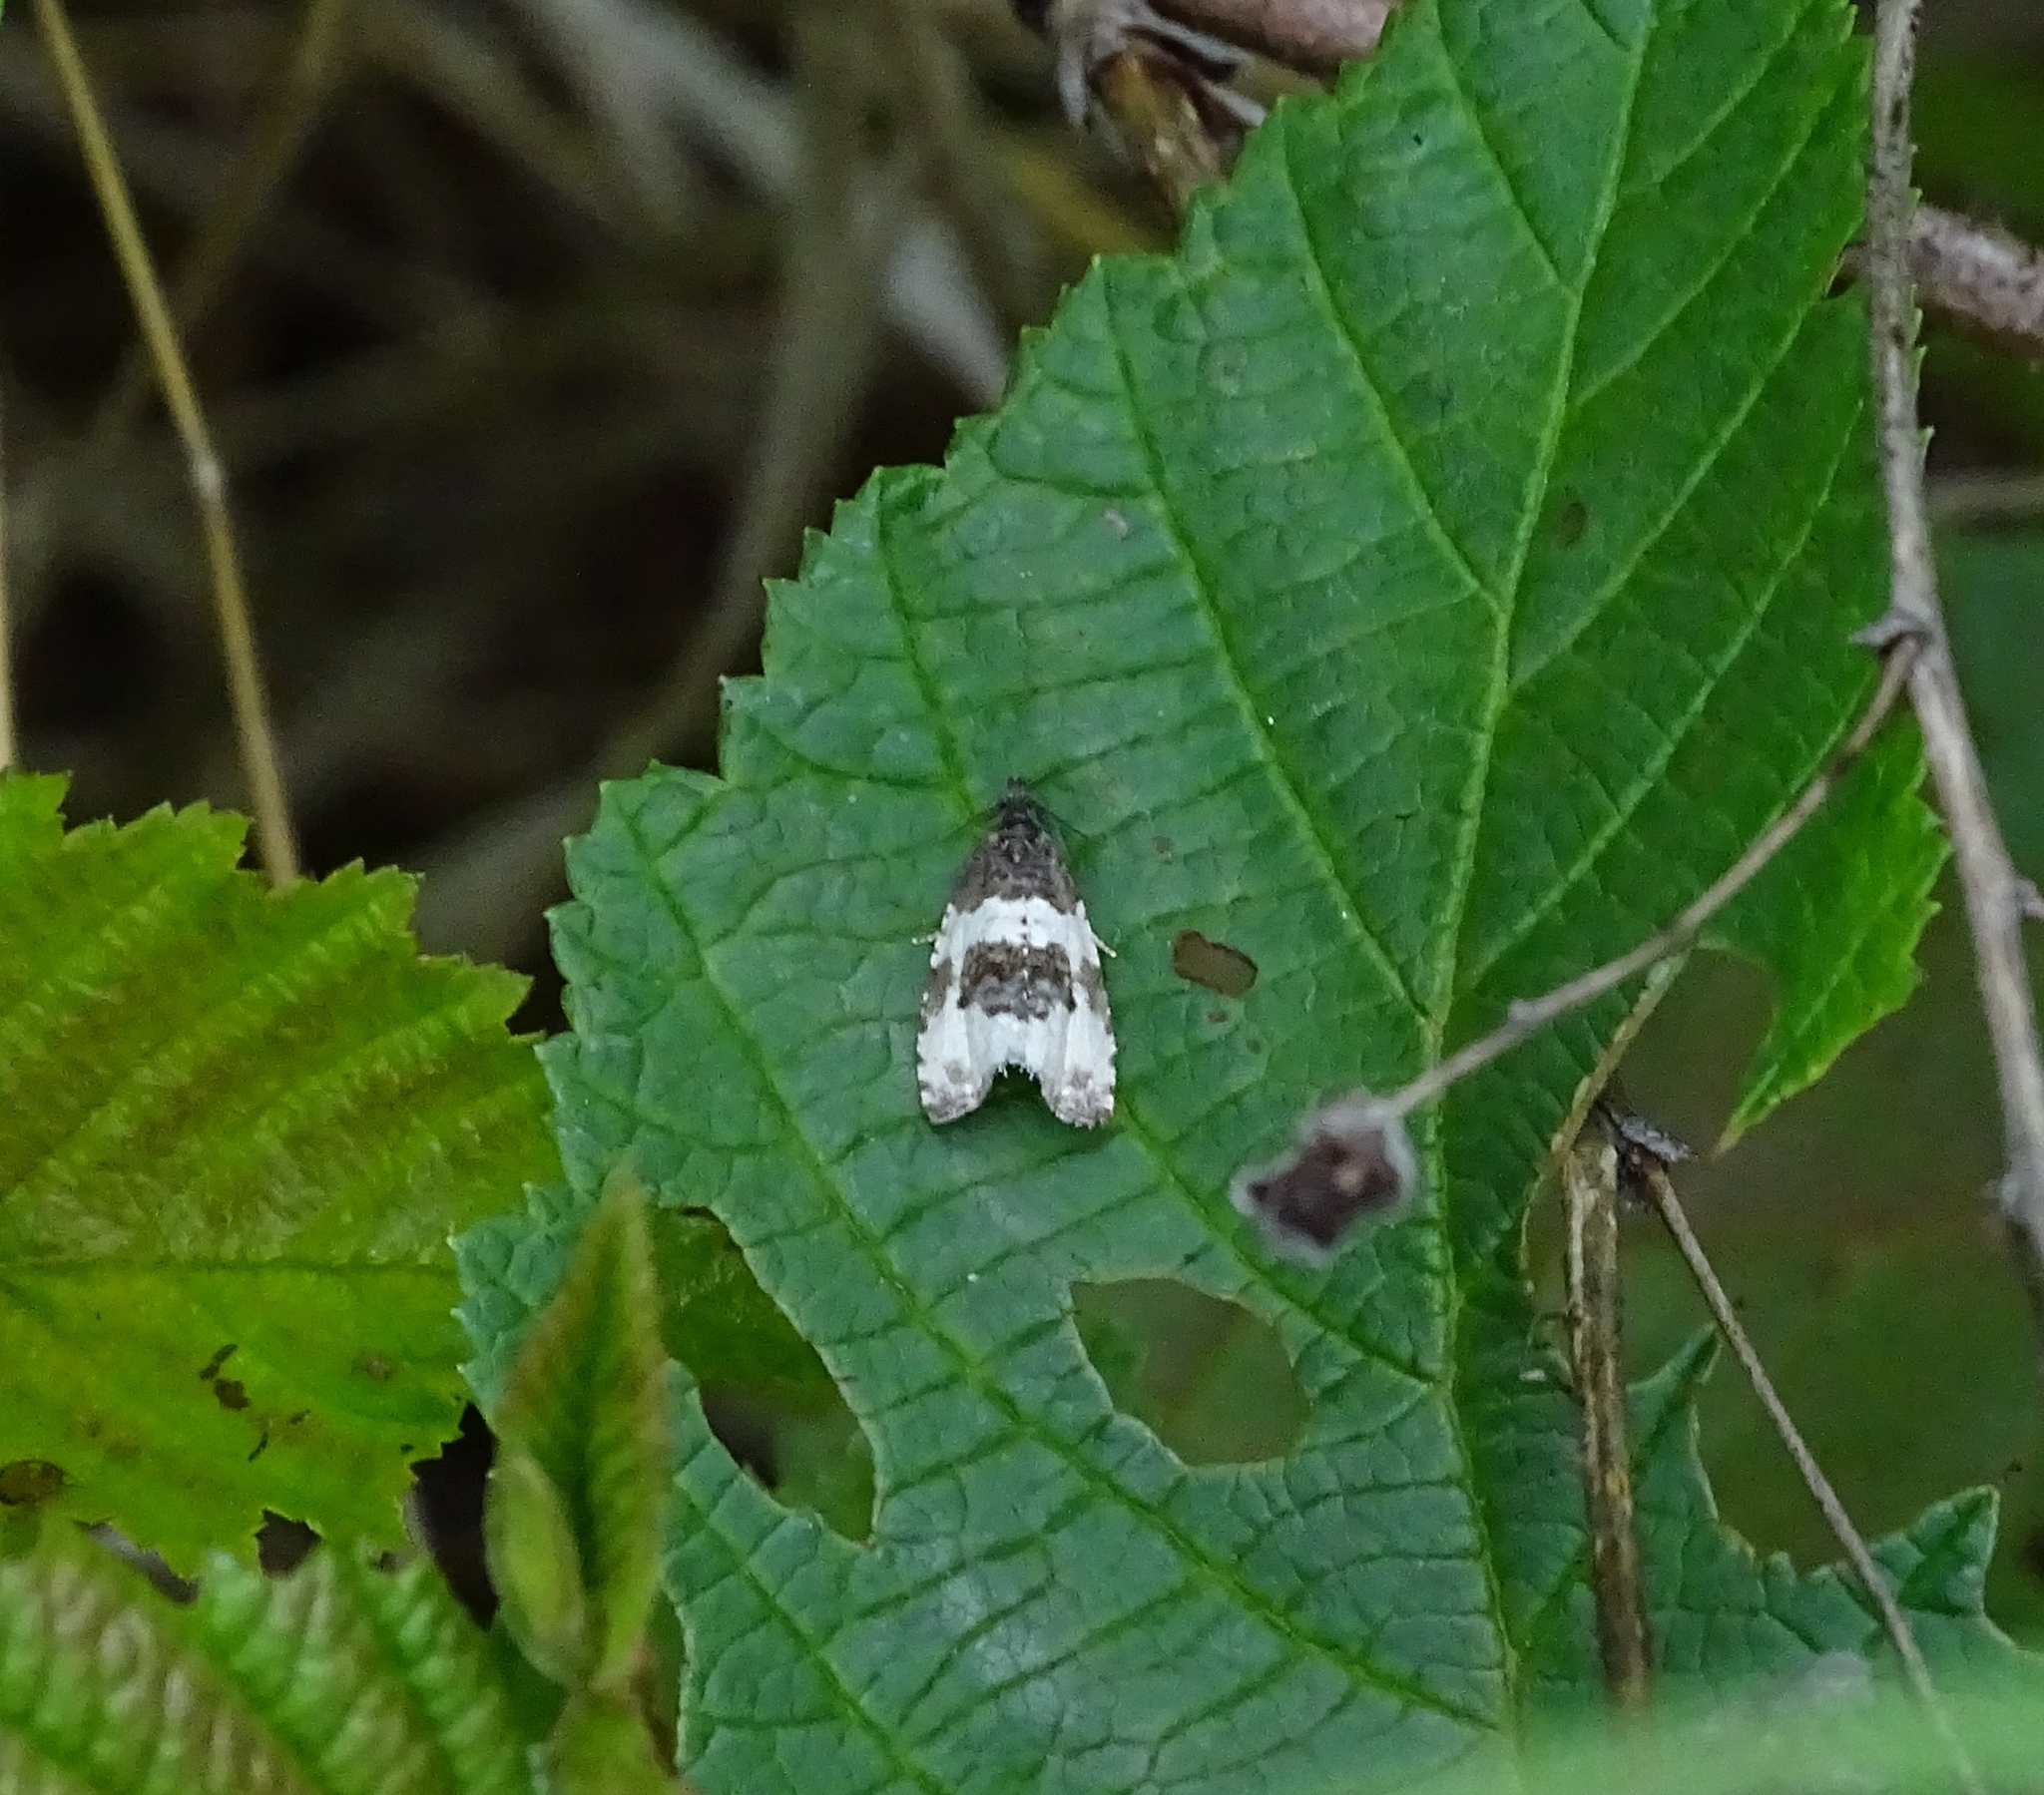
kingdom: Animalia
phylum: Arthropoda
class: Insecta
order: Lepidoptera
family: Tortricidae
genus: Olethreutes
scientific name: Olethreutes bipartitana
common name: Divided olethreutes moth
